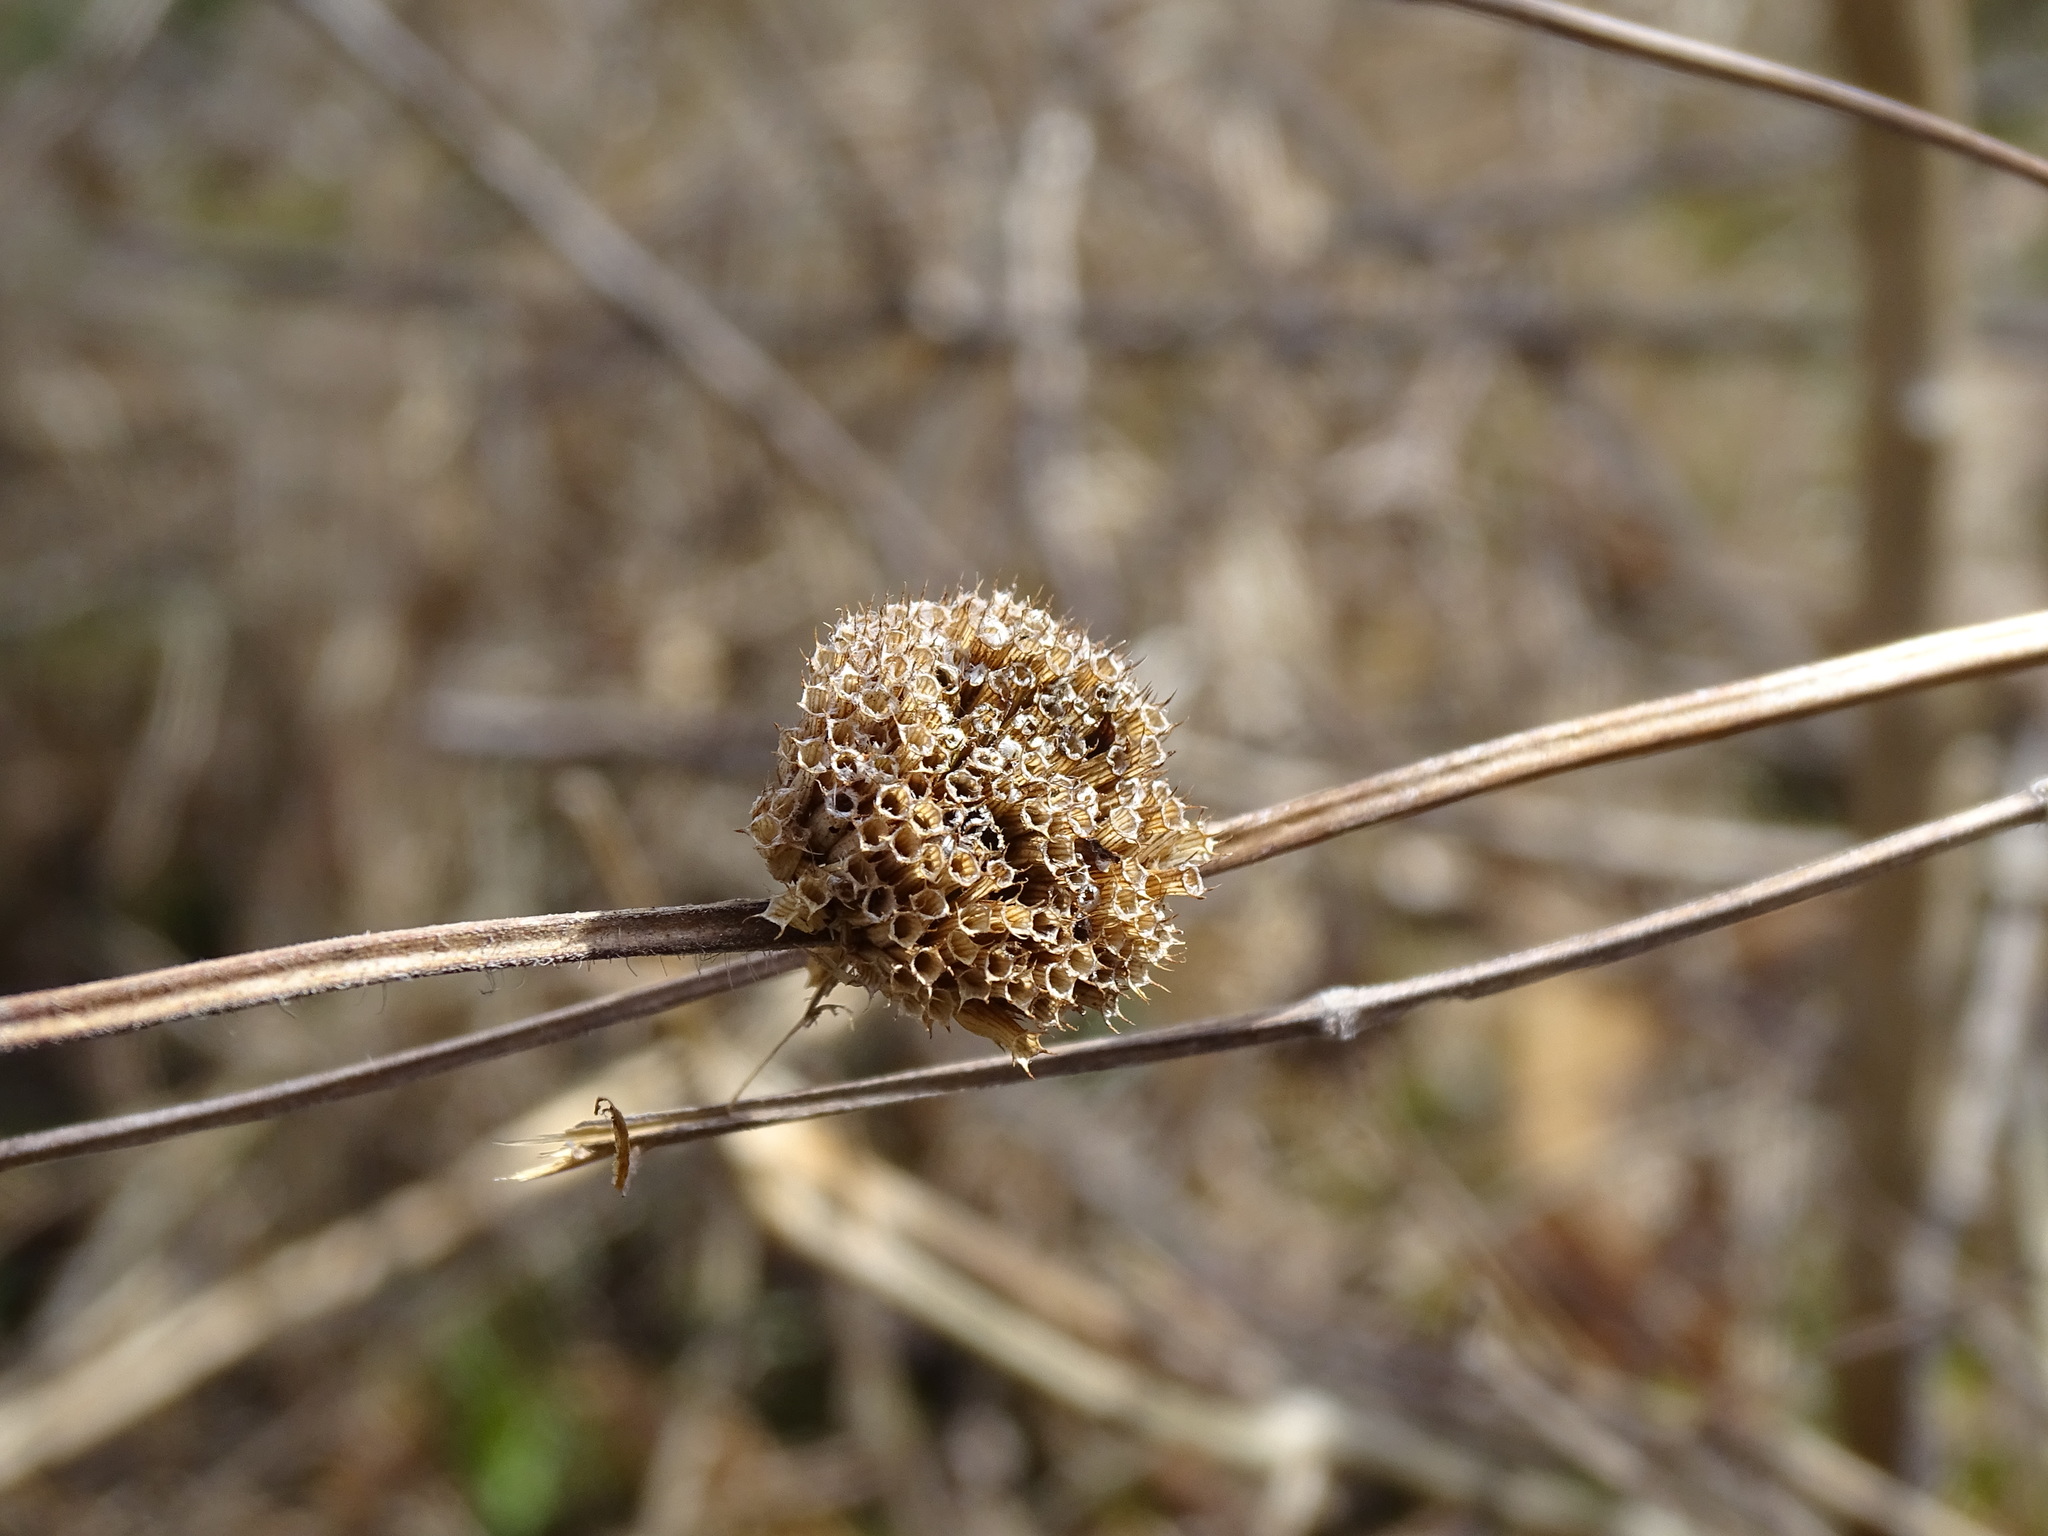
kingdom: Plantae
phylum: Tracheophyta
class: Magnoliopsida
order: Lamiales
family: Lamiaceae
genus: Monarda
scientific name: Monarda fistulosa
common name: Purple beebalm
